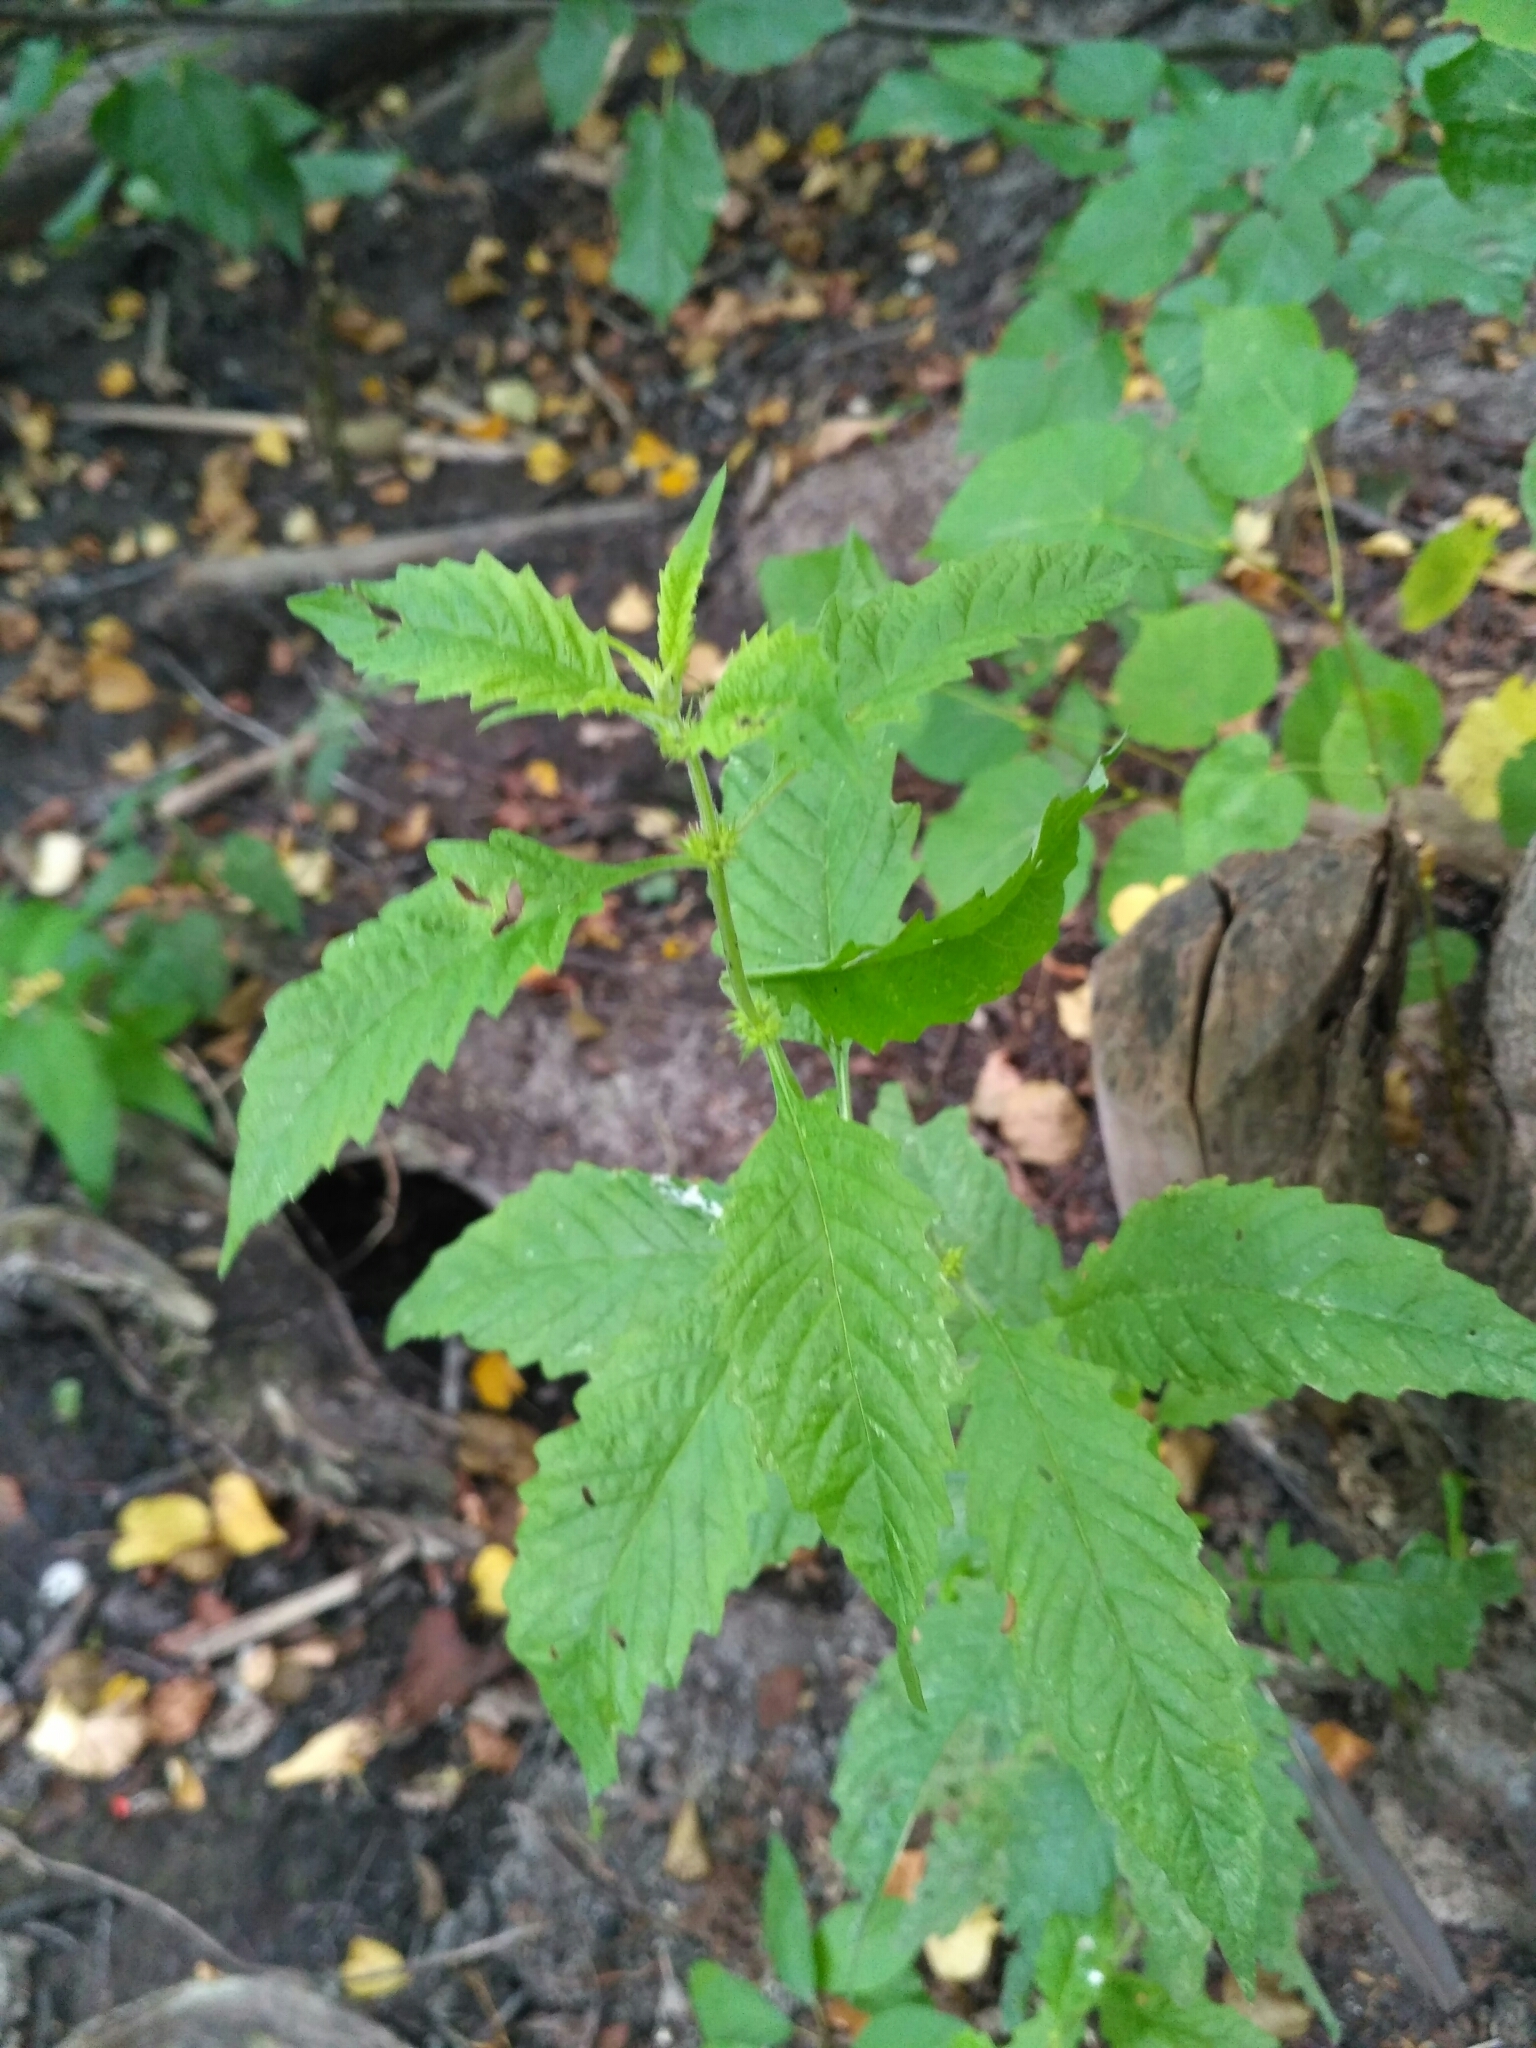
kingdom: Plantae
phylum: Tracheophyta
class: Magnoliopsida
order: Lamiales
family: Lamiaceae
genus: Lycopus
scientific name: Lycopus europaeus
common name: European bugleweed
